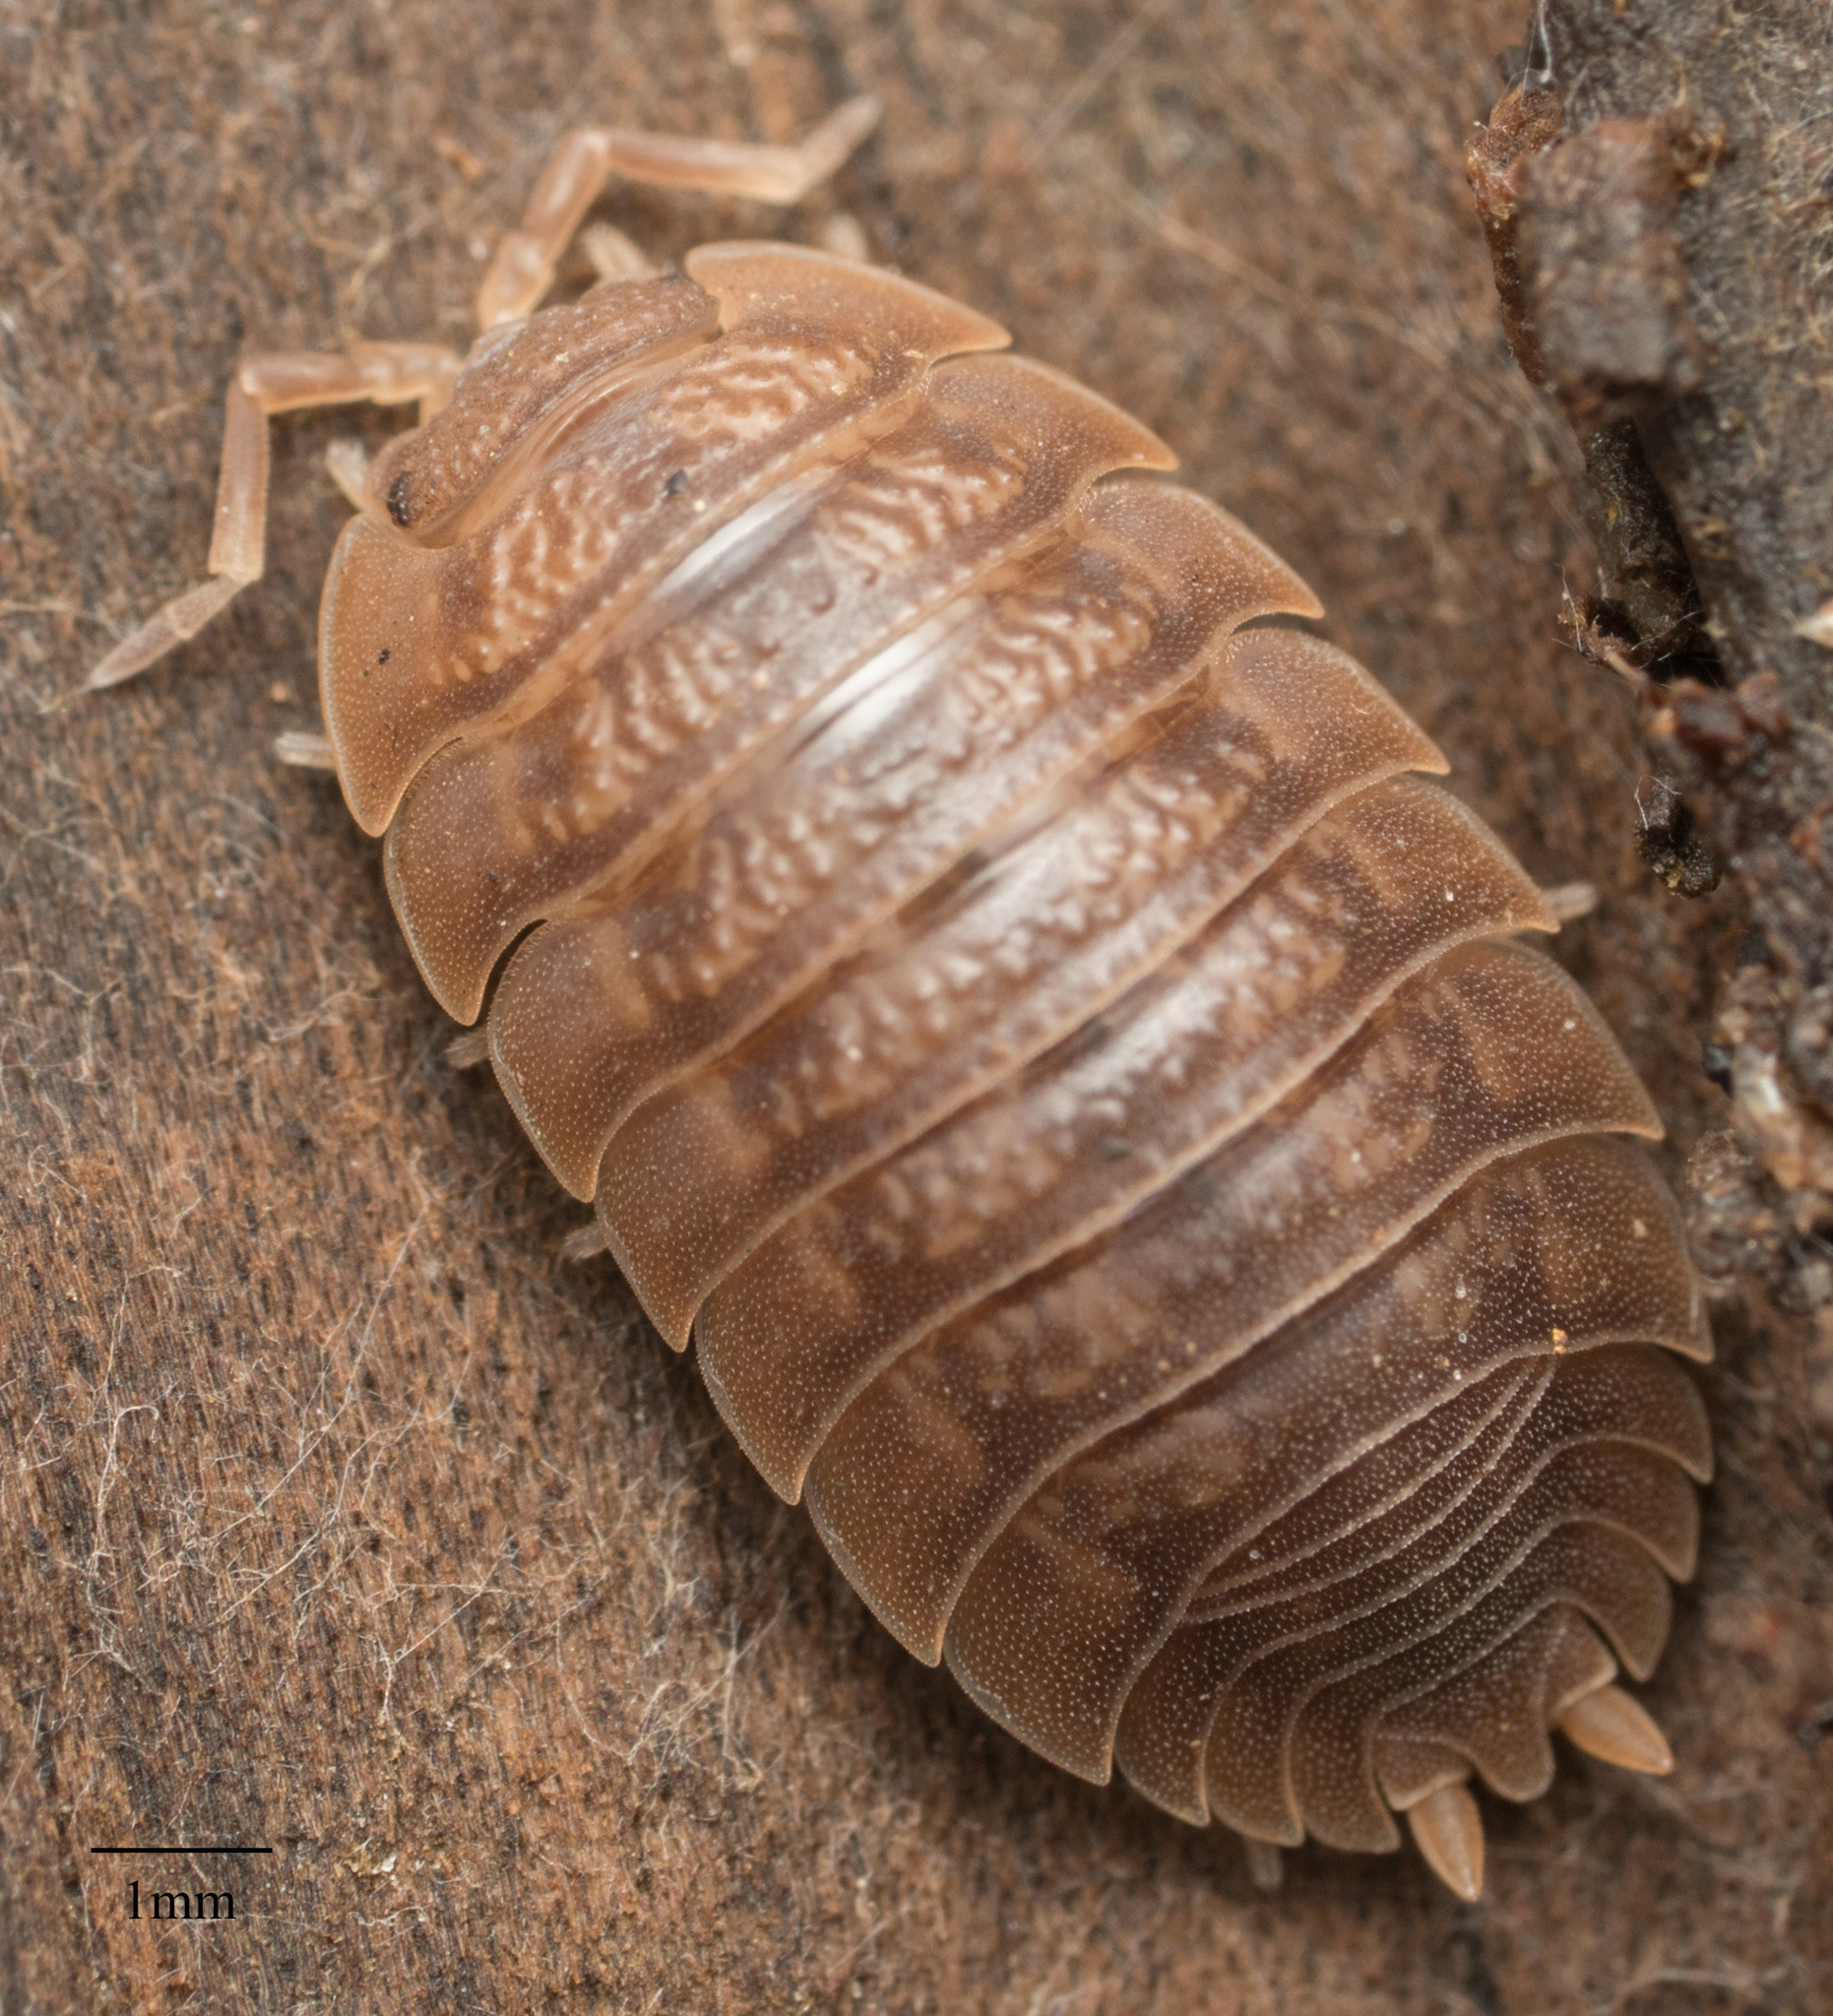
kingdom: Animalia
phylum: Arthropoda
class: Malacostraca
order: Isopoda
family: Porcellionidae
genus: Porcellio
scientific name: Porcellio dilatatus
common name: Isopod
